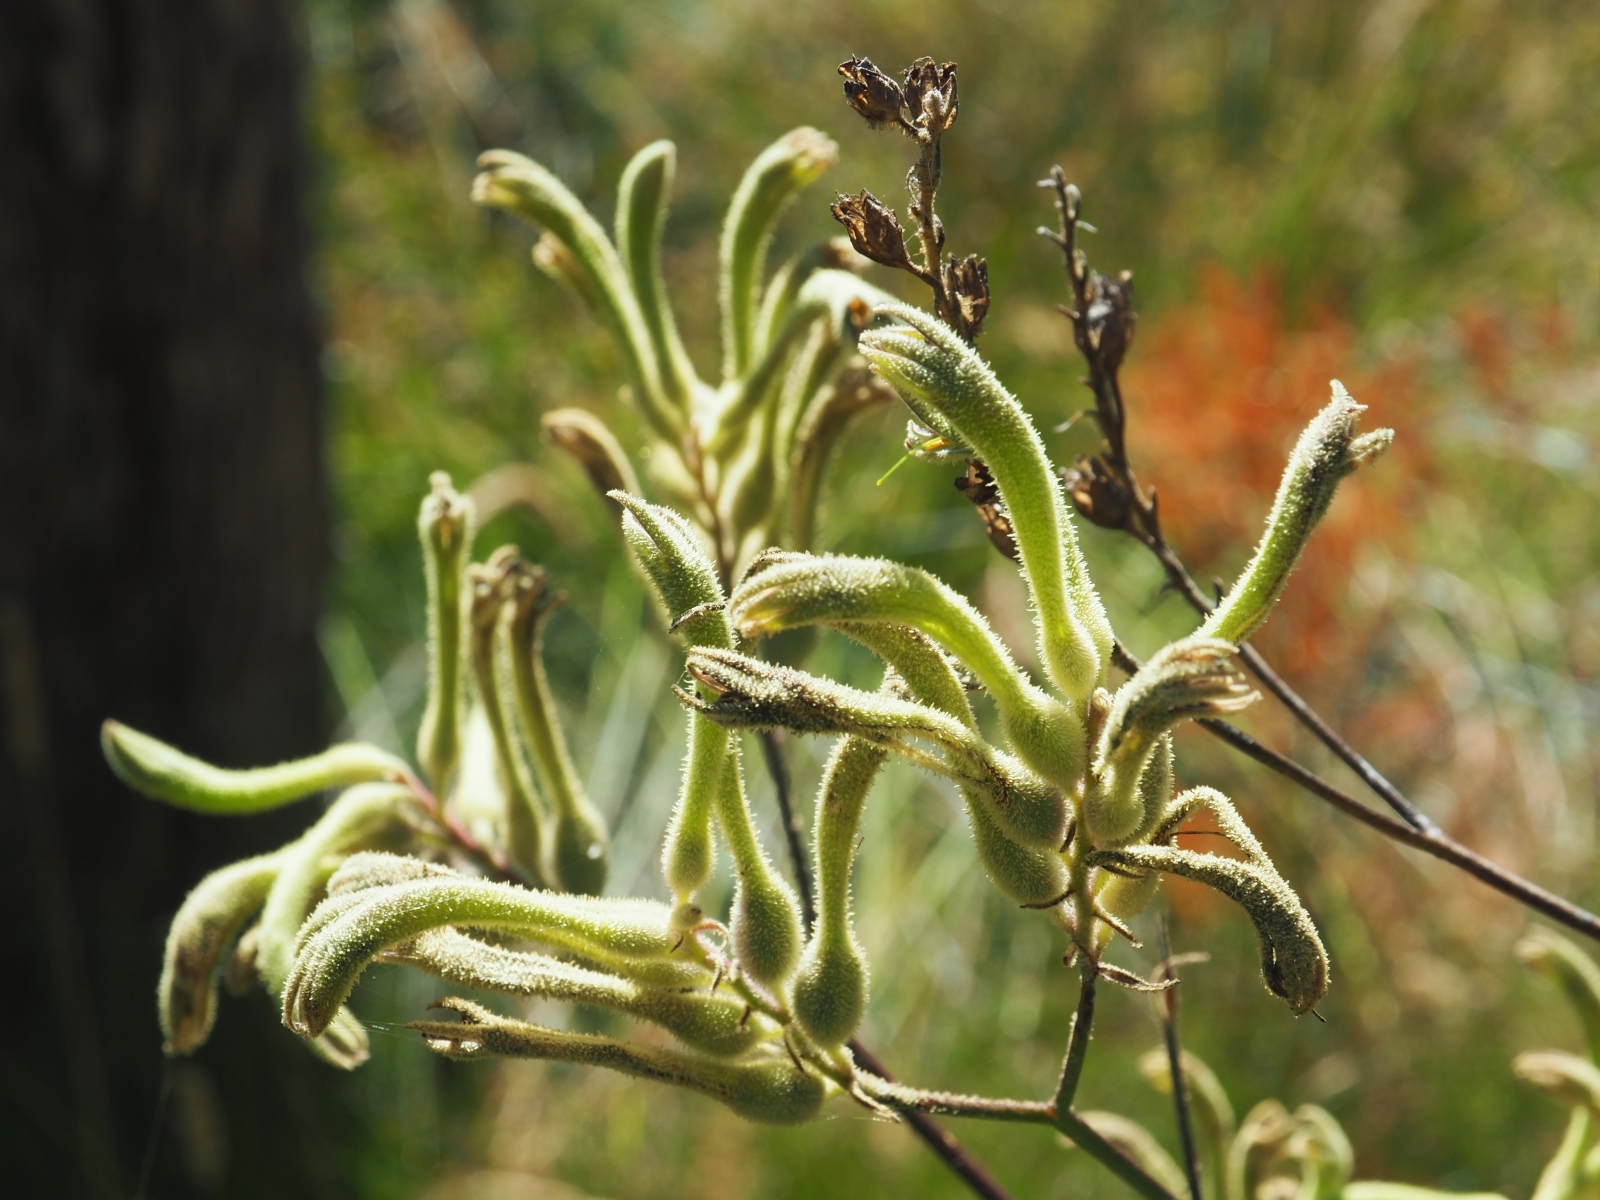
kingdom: Plantae
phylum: Tracheophyta
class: Liliopsida
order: Commelinales
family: Haemodoraceae
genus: Anigozanthos
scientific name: Anigozanthos flavidus
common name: Evergreen kangaroo-paw
